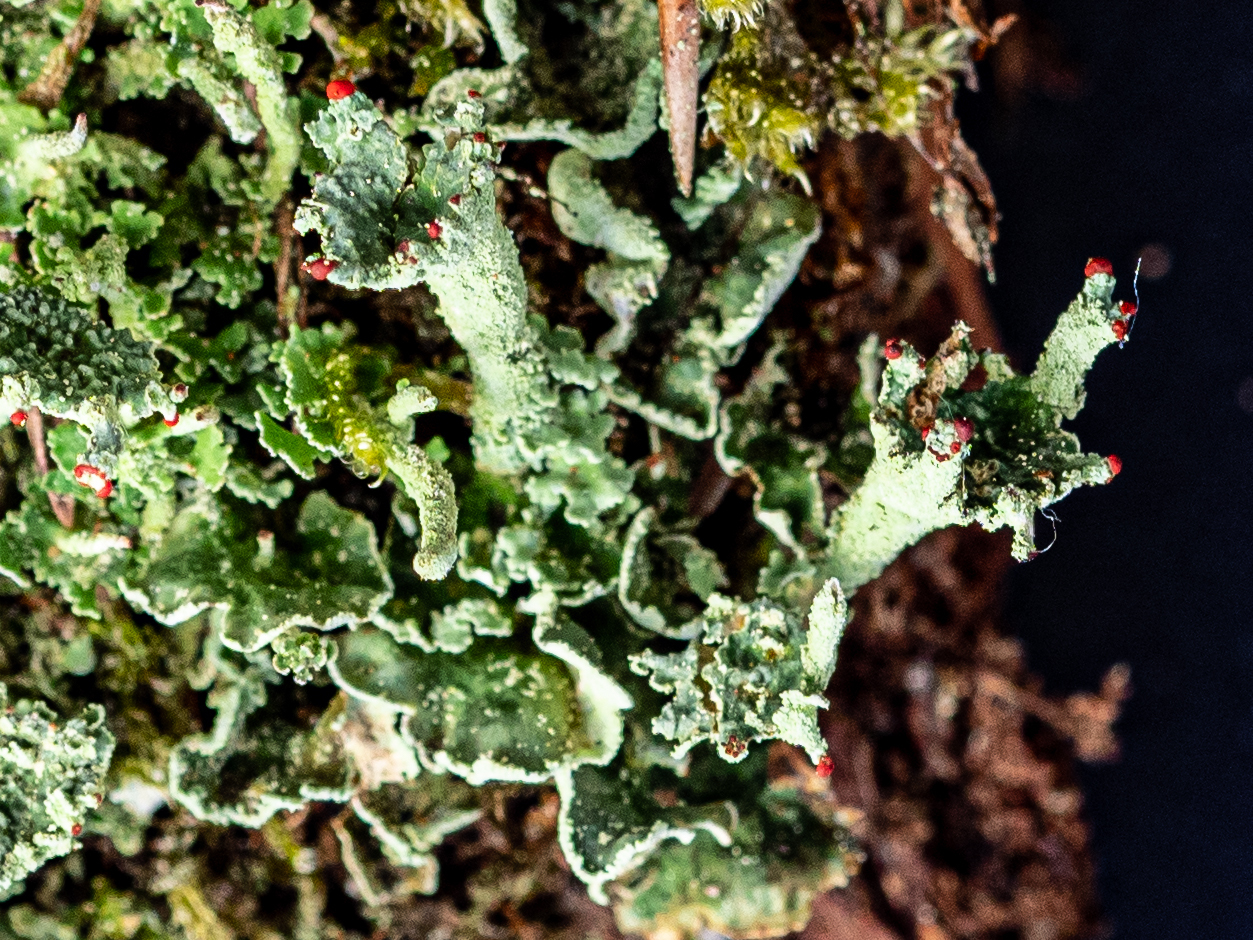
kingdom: Fungi
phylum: Ascomycota
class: Lecanoromycetes
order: Lecanorales
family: Cladoniaceae
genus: Cladonia
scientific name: Cladonia digitata
